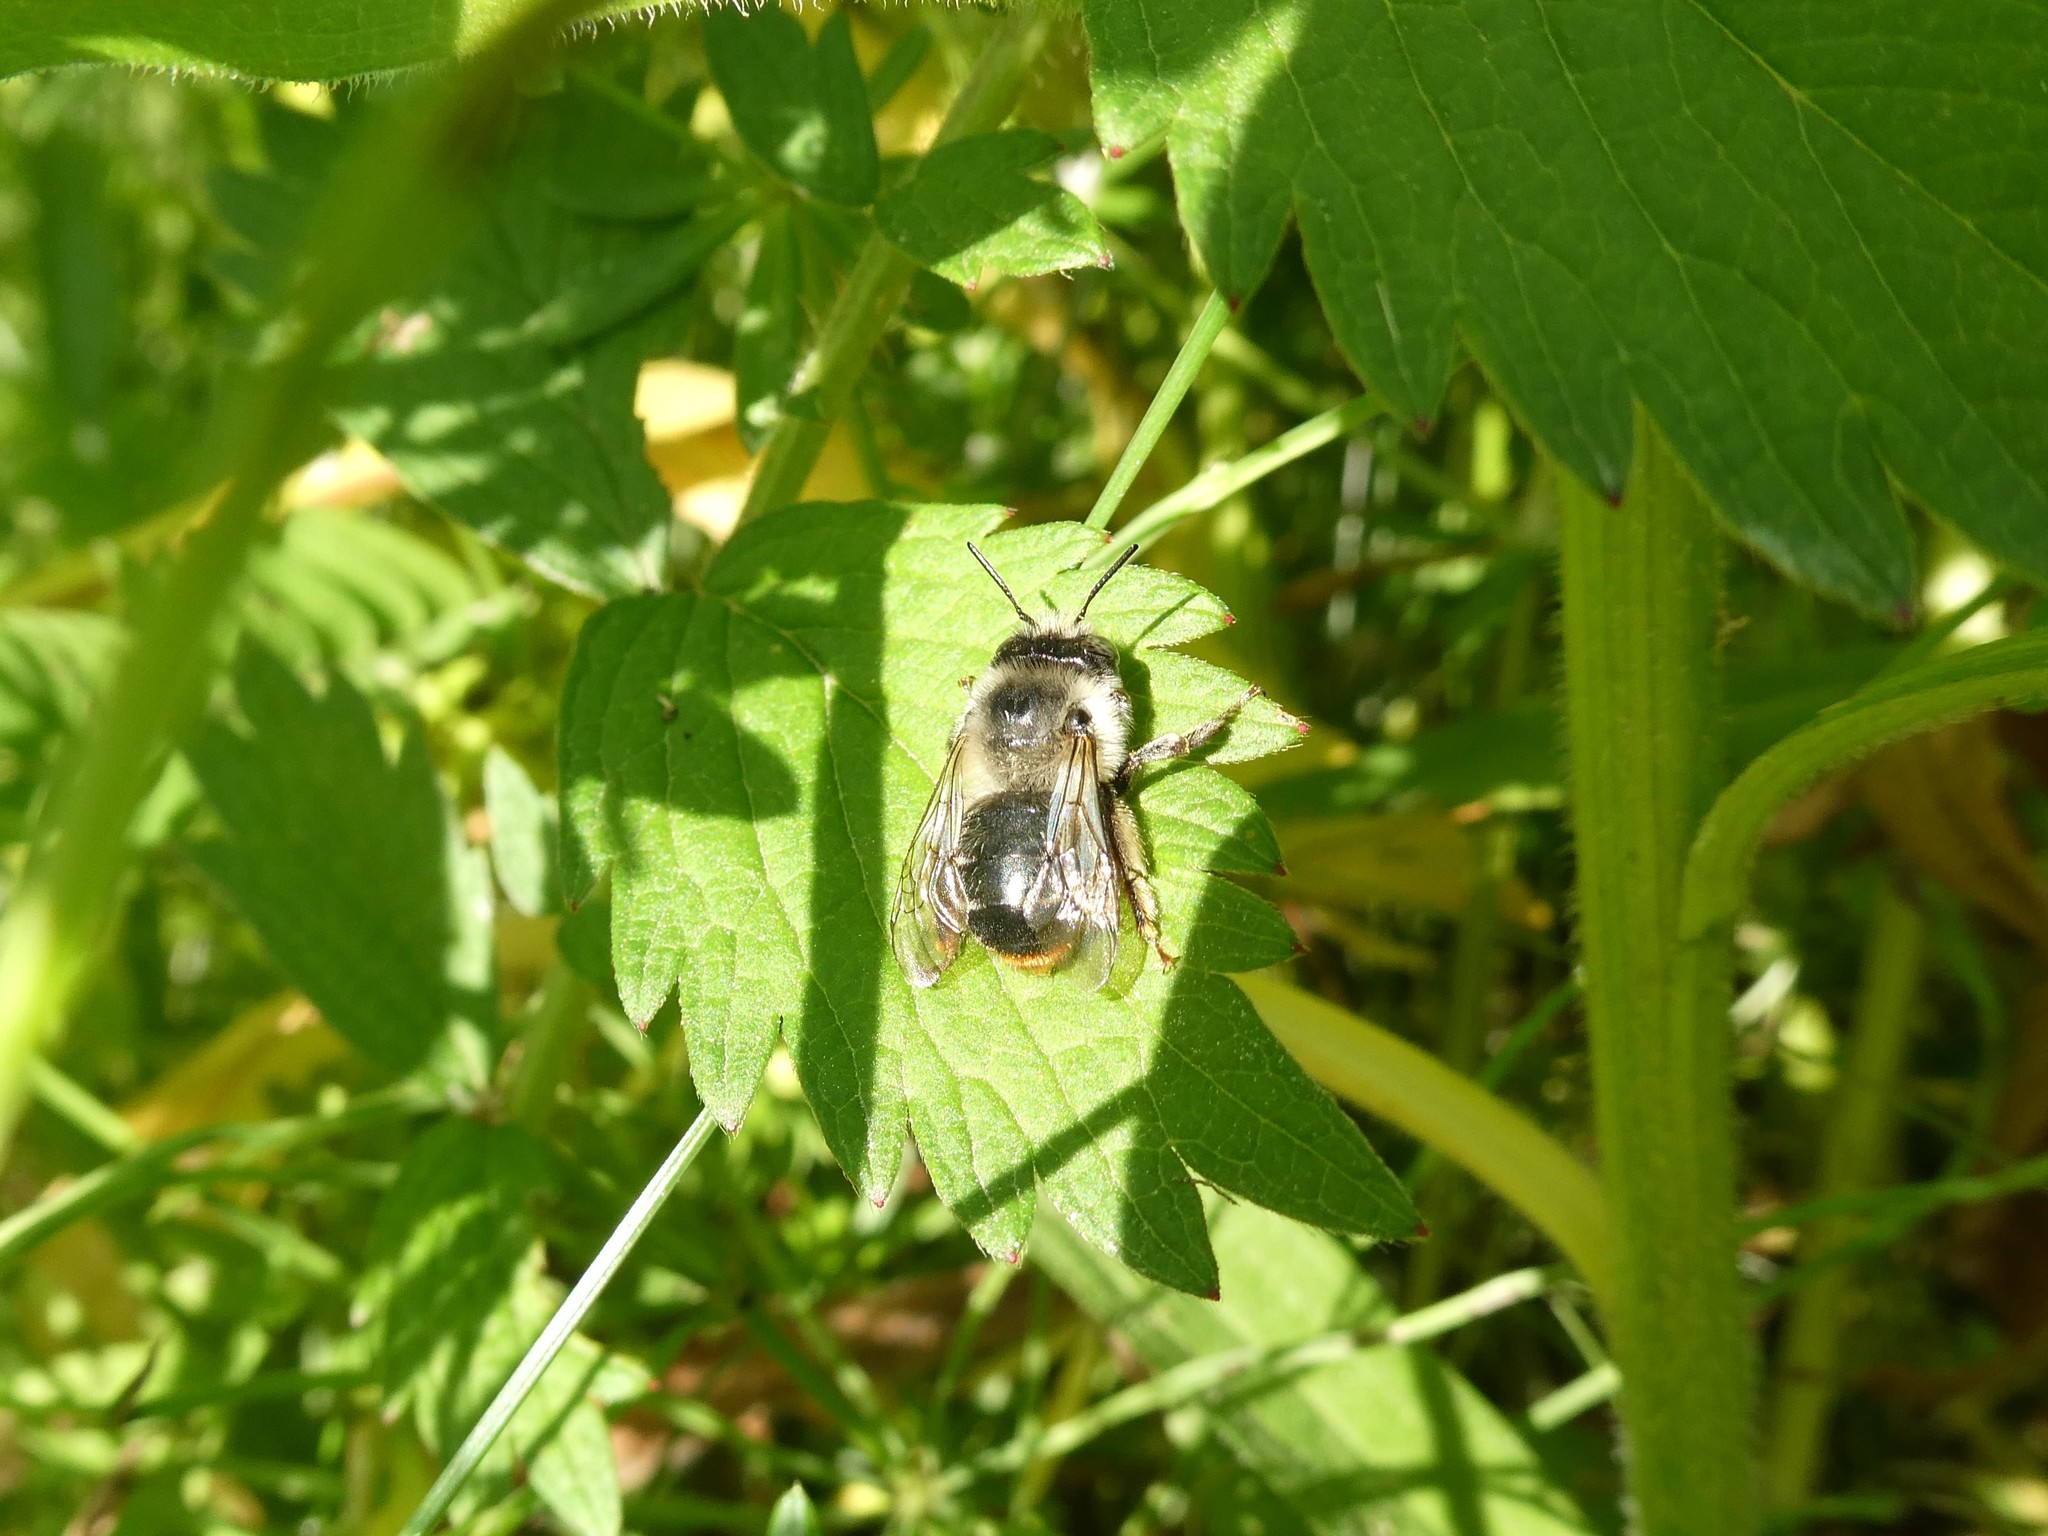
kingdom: Animalia
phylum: Arthropoda
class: Insecta
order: Hymenoptera
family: Apidae
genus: Anthophora
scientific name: Anthophora terminalis
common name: Orange-tipped wood-digger bee
